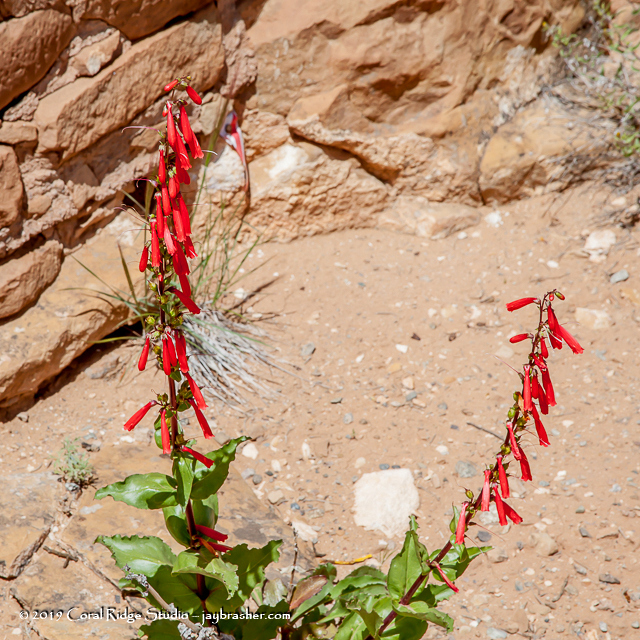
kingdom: Plantae
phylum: Tracheophyta
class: Magnoliopsida
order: Lamiales
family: Plantaginaceae
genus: Penstemon
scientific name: Penstemon eatonii
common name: Eaton's penstemon
